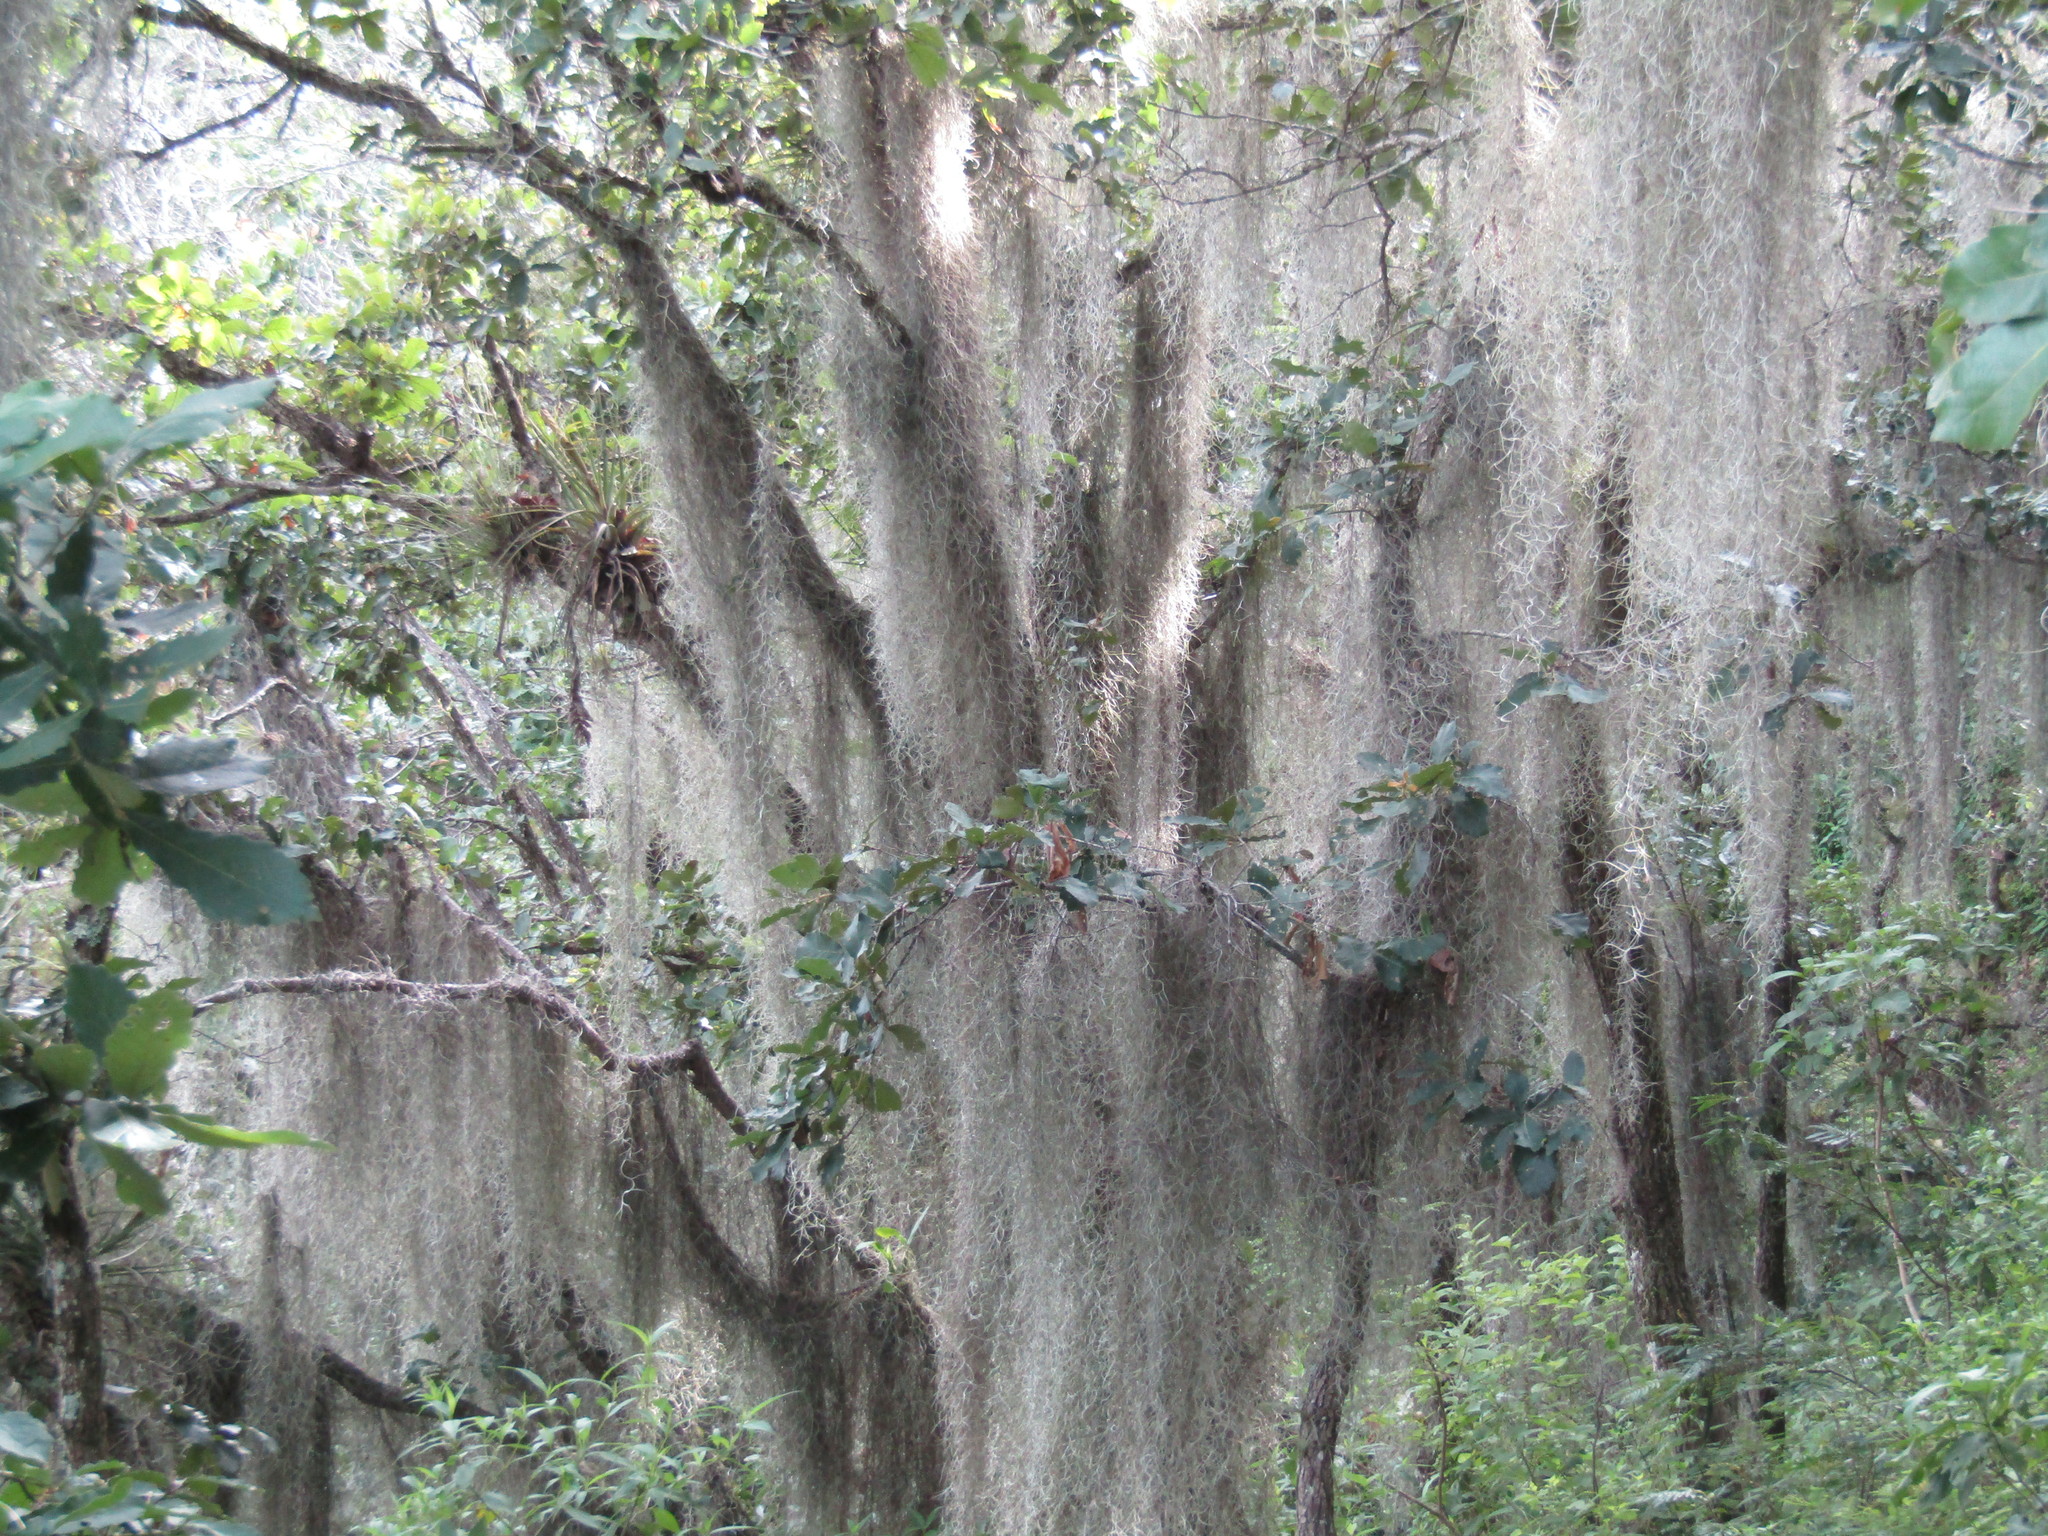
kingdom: Plantae
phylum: Tracheophyta
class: Liliopsida
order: Poales
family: Bromeliaceae
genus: Tillandsia
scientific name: Tillandsia usneoides
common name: Spanish moss
